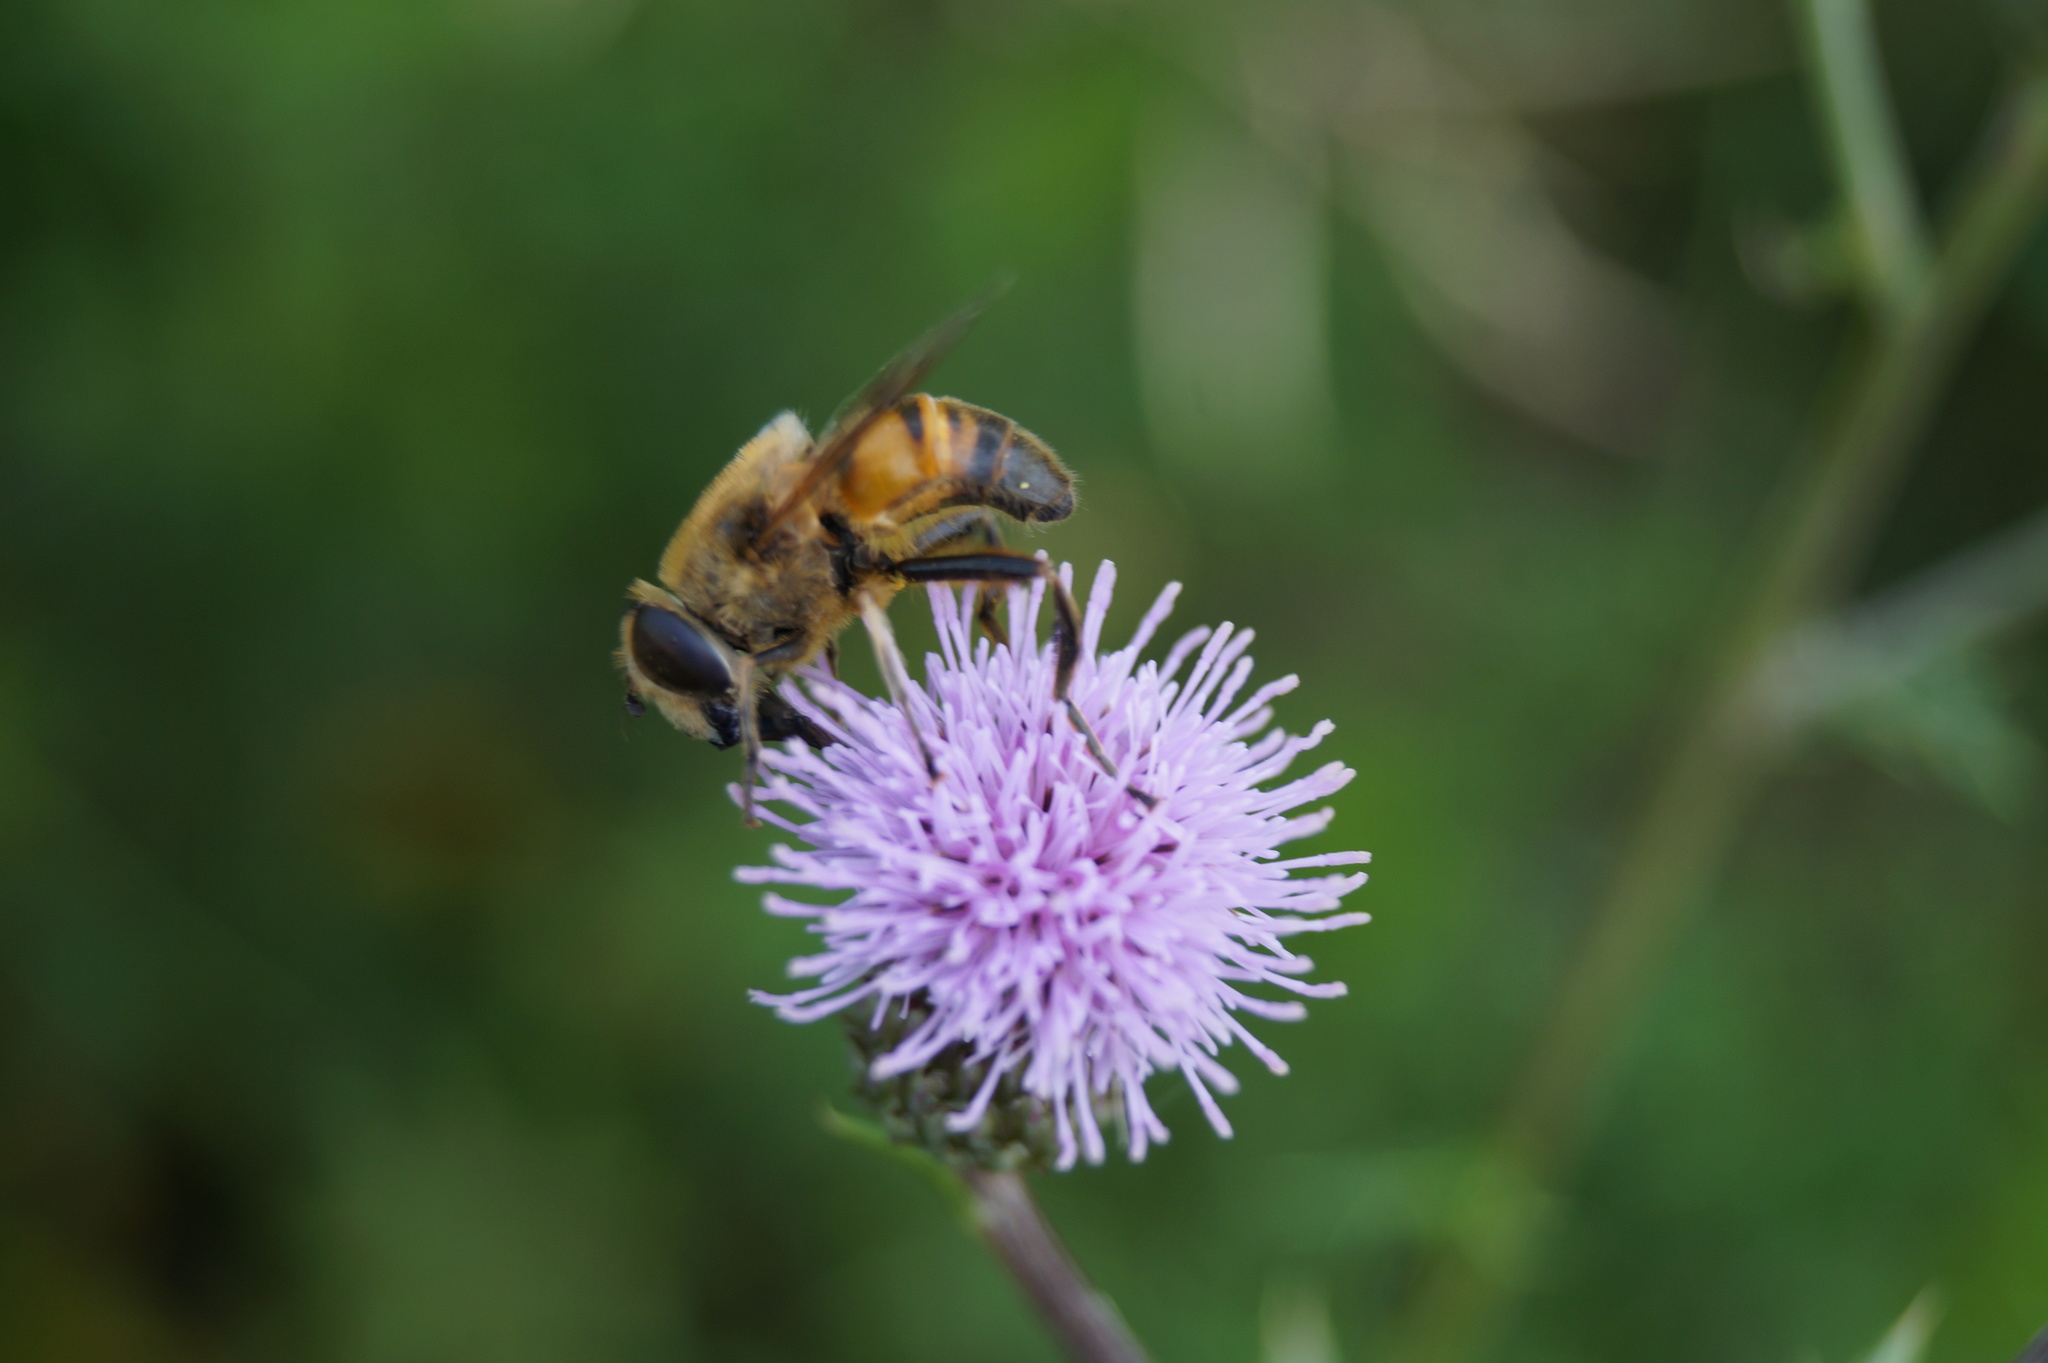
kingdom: Animalia
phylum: Arthropoda
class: Insecta
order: Diptera
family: Syrphidae
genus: Eristalis
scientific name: Eristalis tenax
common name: Drone fly
